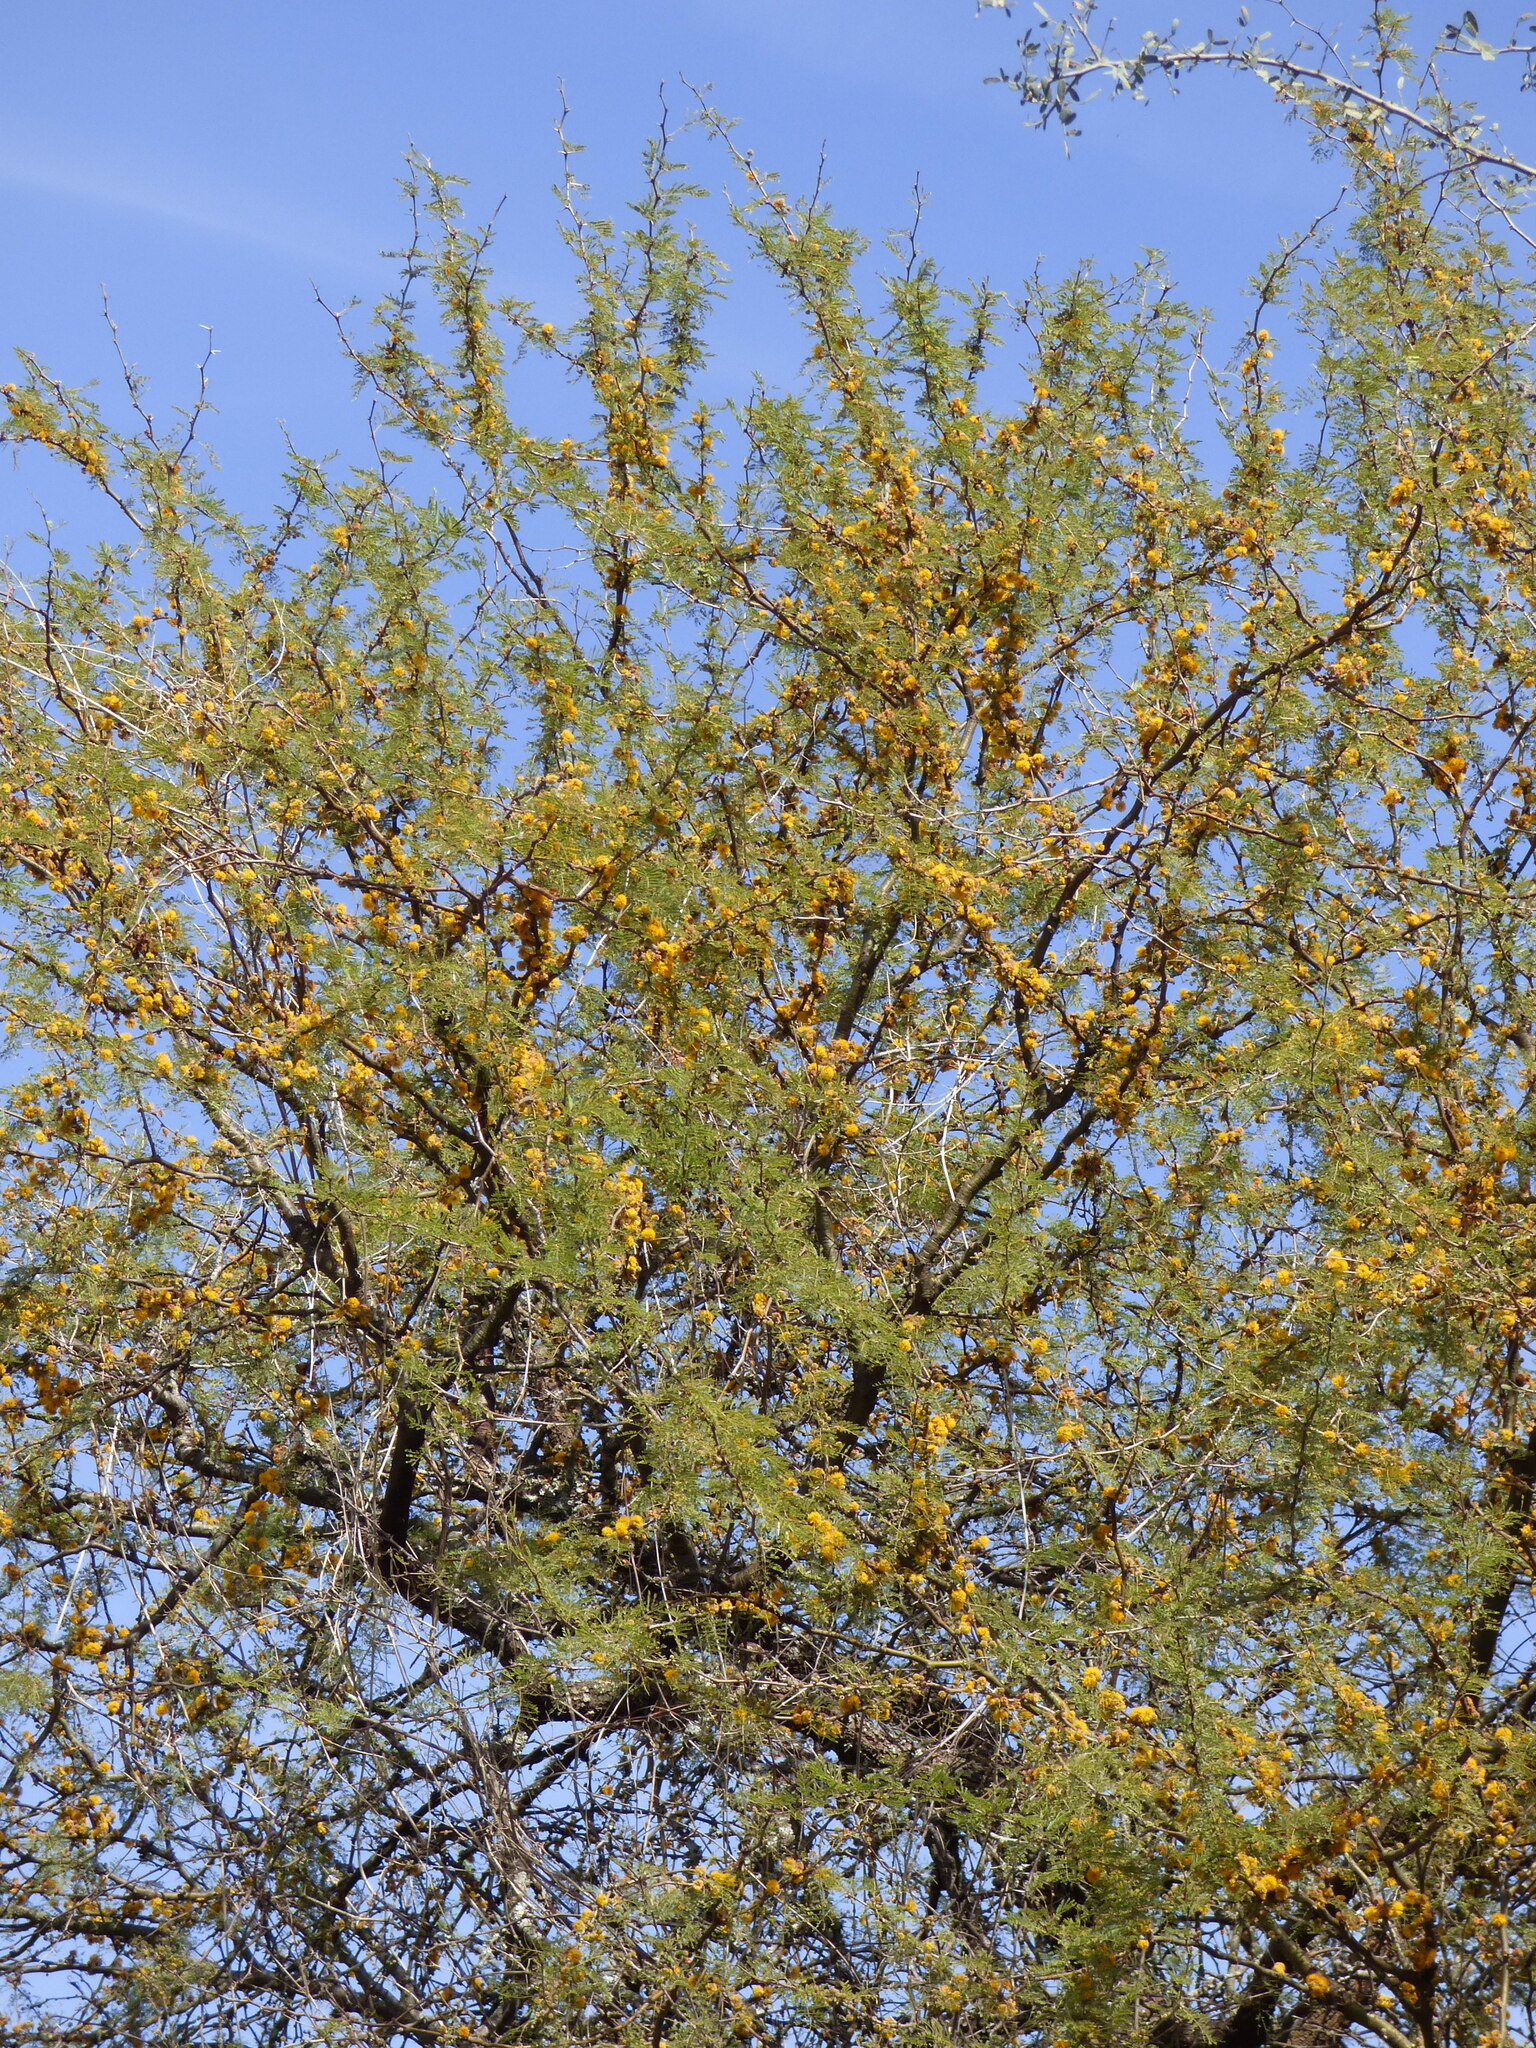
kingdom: Plantae
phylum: Tracheophyta
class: Magnoliopsida
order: Fabales
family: Fabaceae
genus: Vachellia
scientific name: Vachellia caven
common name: Roman cassie
